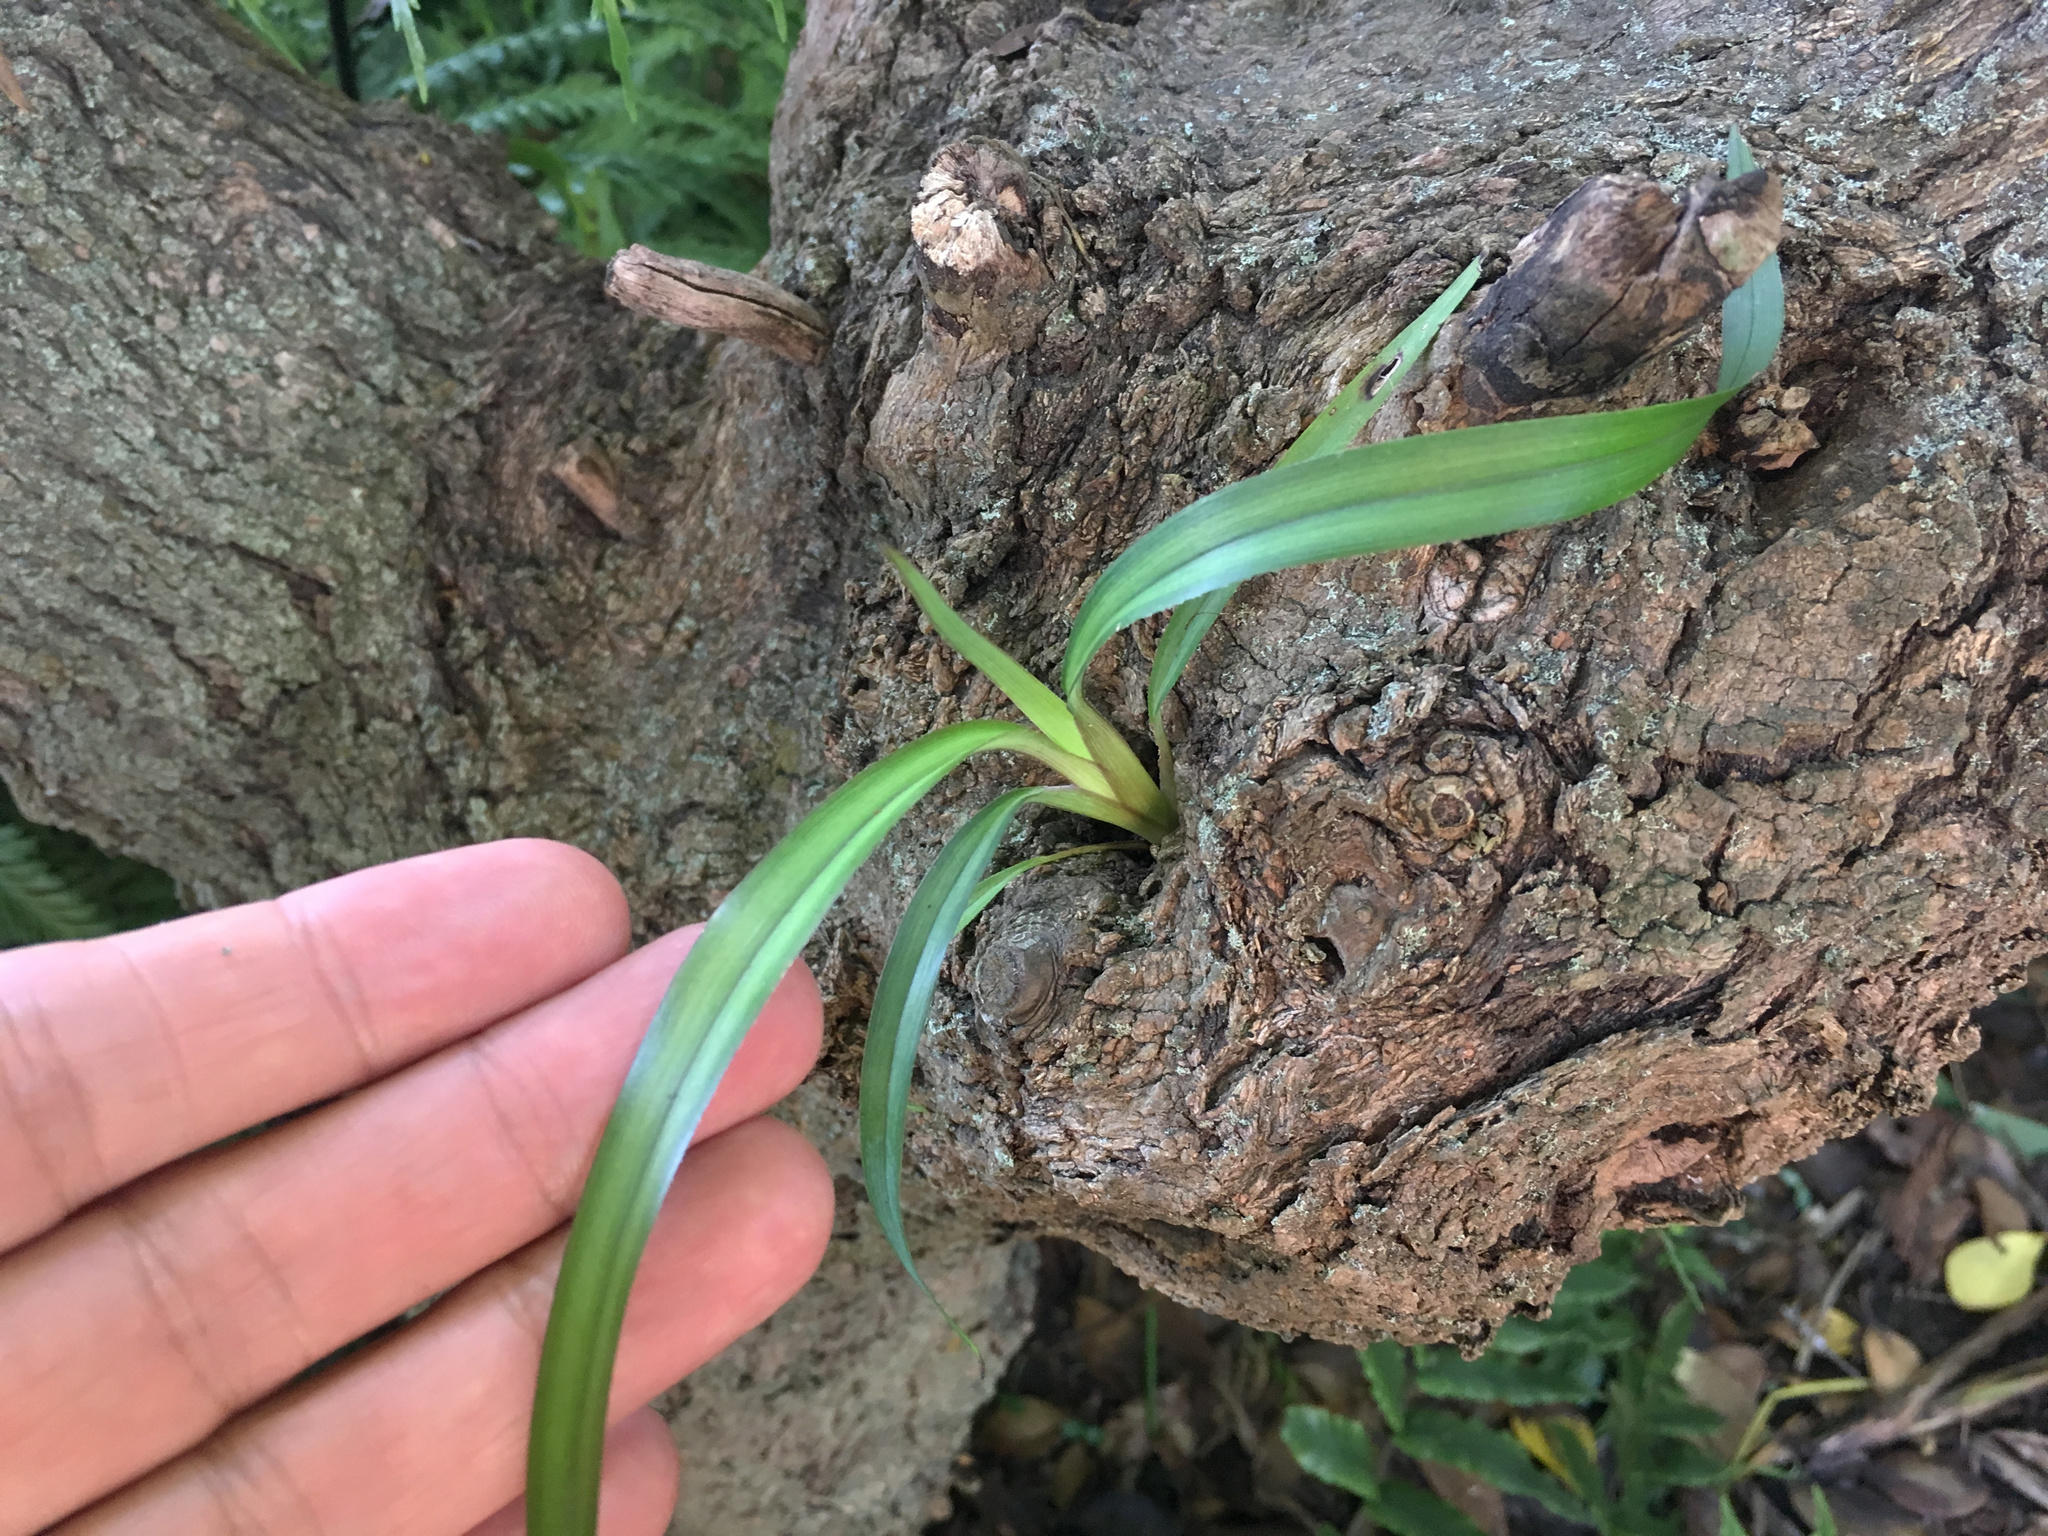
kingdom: Plantae
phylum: Tracheophyta
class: Liliopsida
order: Asparagales
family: Asphodelaceae
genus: Dianella
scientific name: Dianella nigra
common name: New zealand-blueberry
